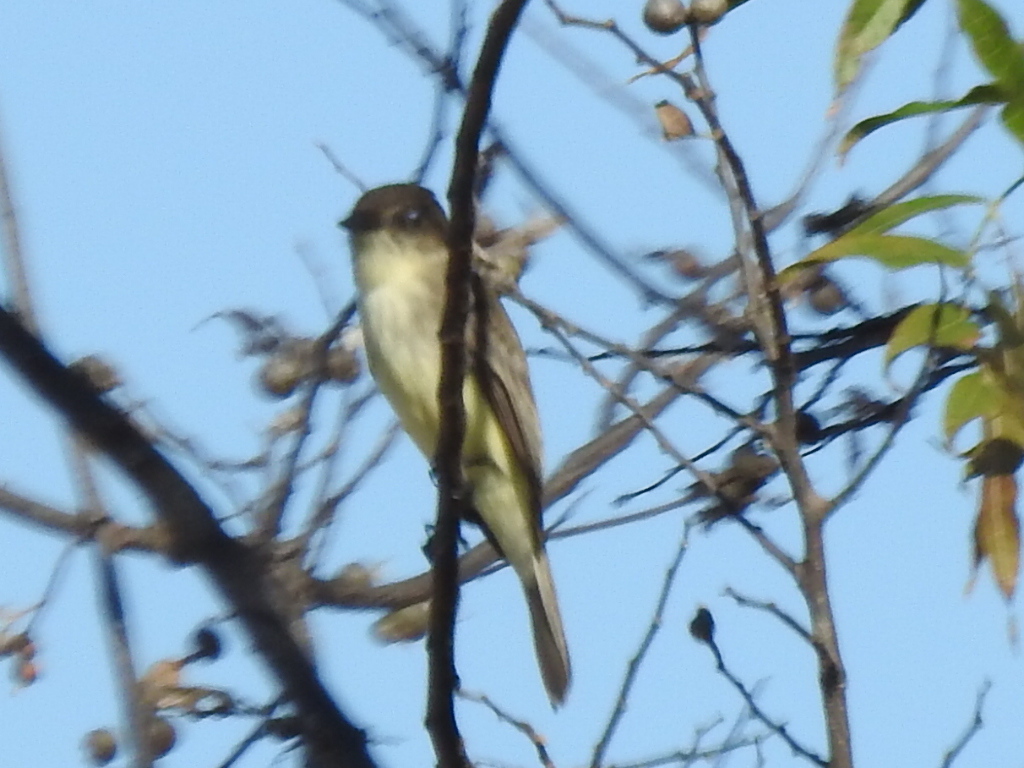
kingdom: Animalia
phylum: Chordata
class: Aves
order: Passeriformes
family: Tyrannidae
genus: Sayornis
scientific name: Sayornis phoebe
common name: Eastern phoebe
